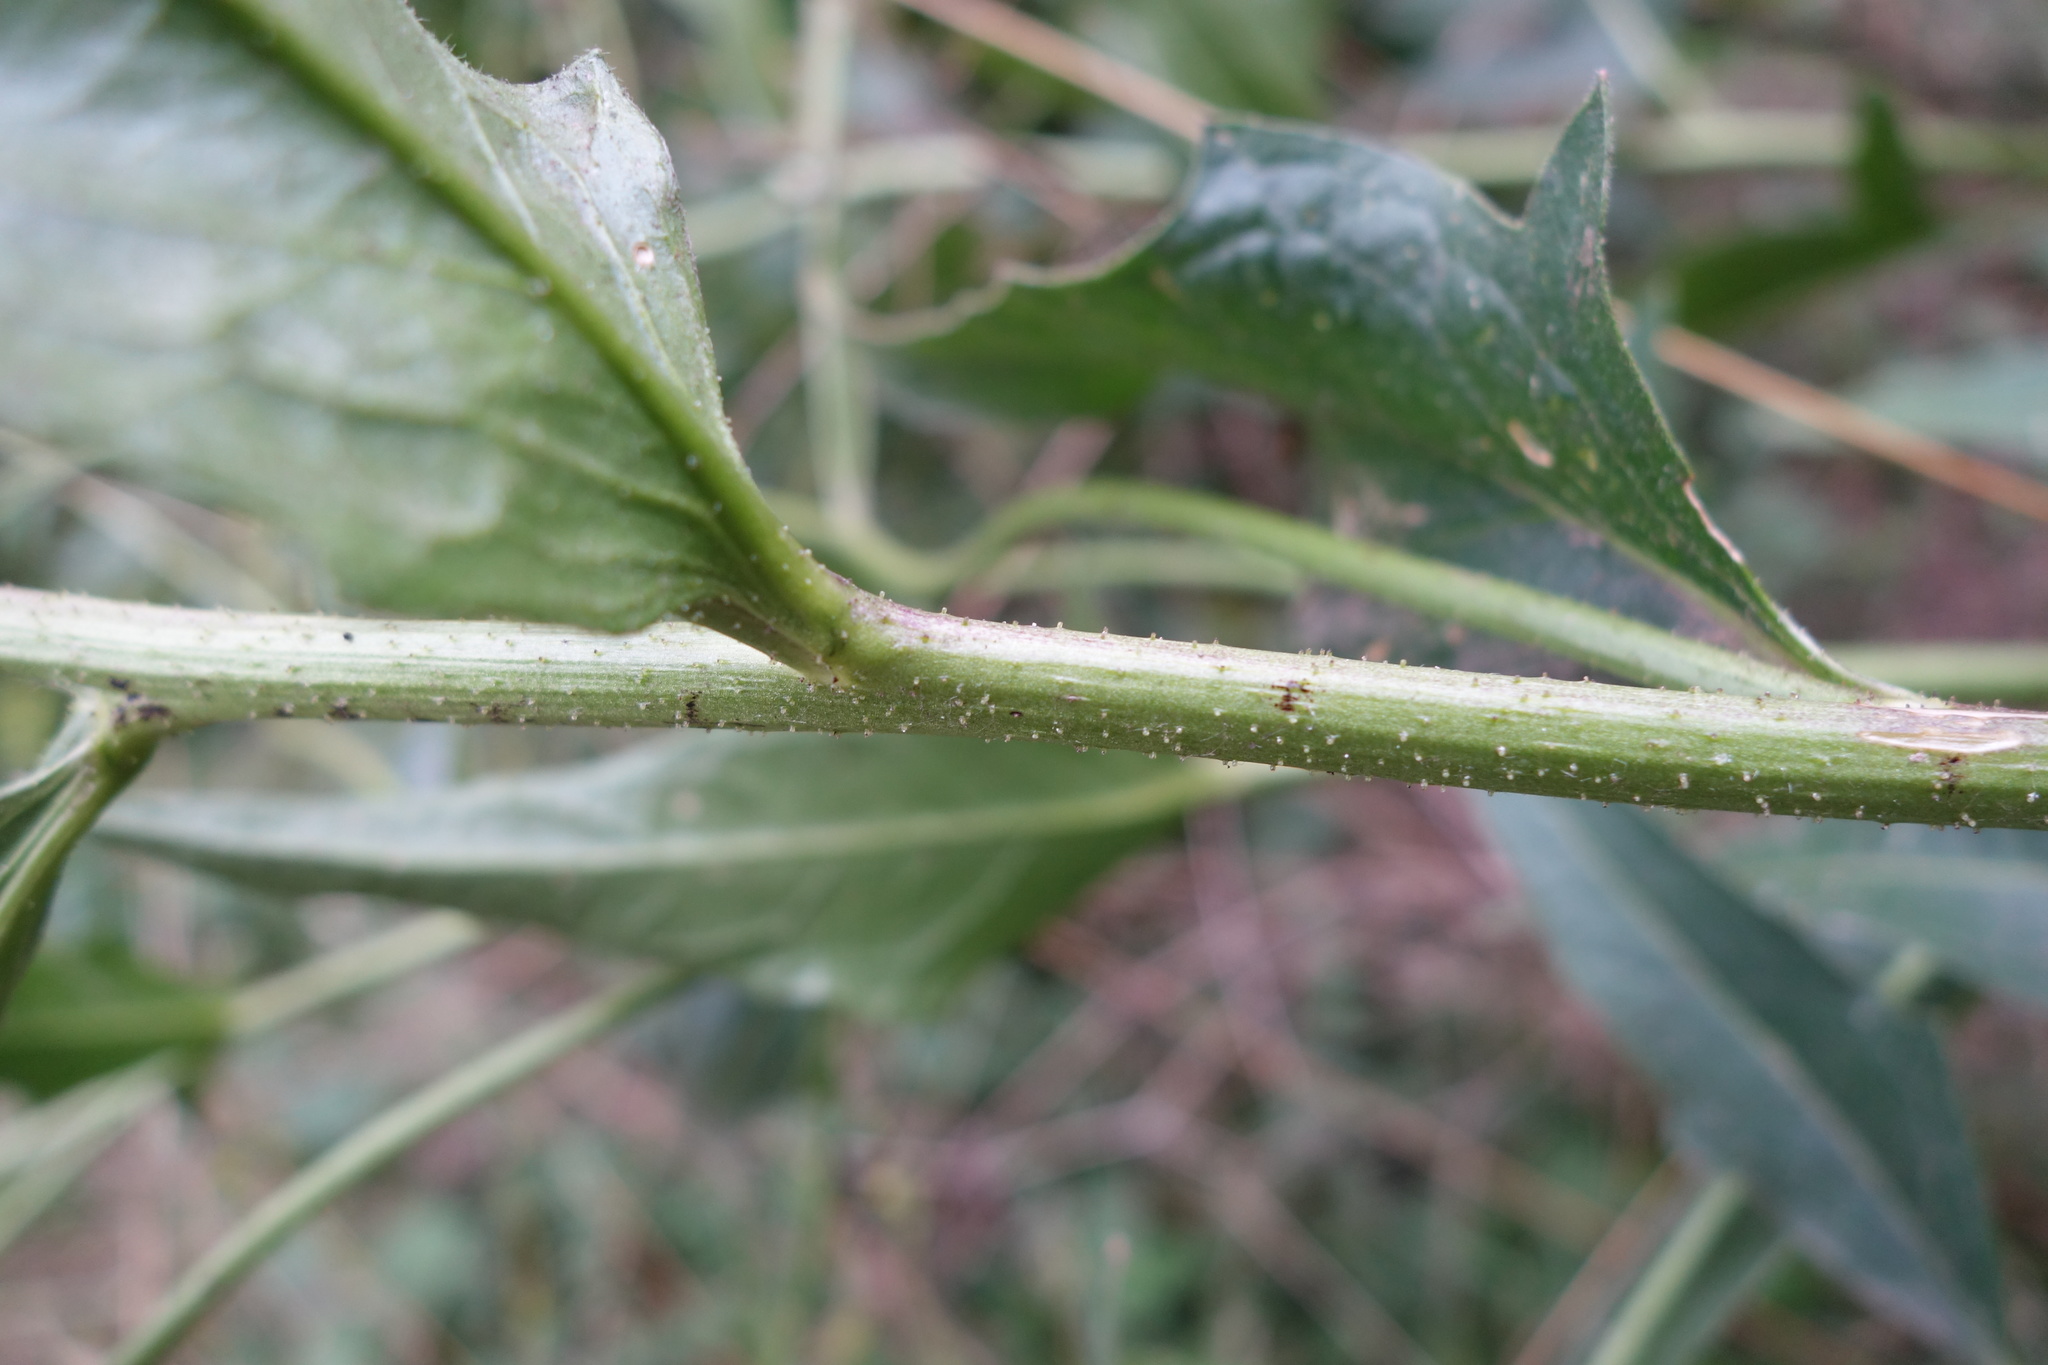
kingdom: Plantae
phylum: Tracheophyta
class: Magnoliopsida
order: Brassicales
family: Brassicaceae
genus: Bunias
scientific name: Bunias orientalis
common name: Warty-cabbage
